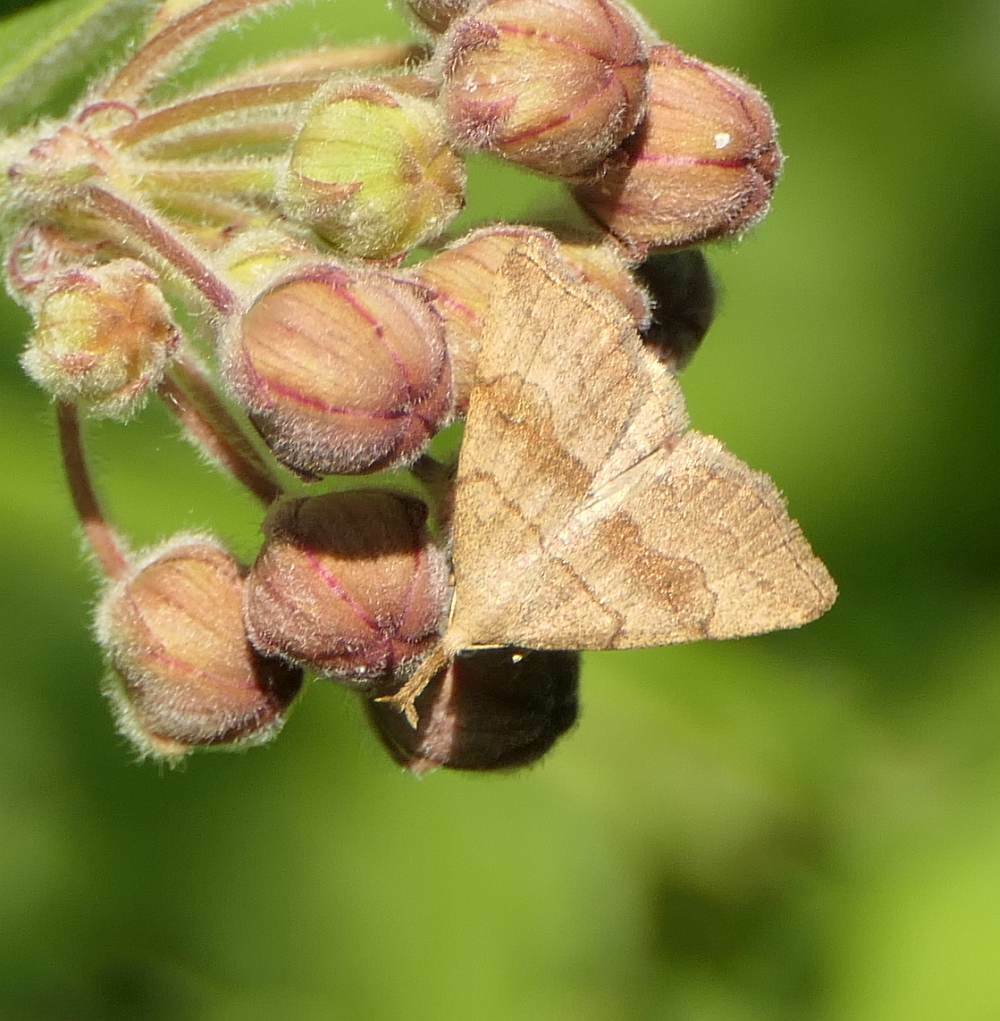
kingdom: Animalia
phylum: Arthropoda
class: Insecta
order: Lepidoptera
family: Erebidae
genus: Phalaenostola
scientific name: Phalaenostola metonalis
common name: Pale phalaenostola moth
